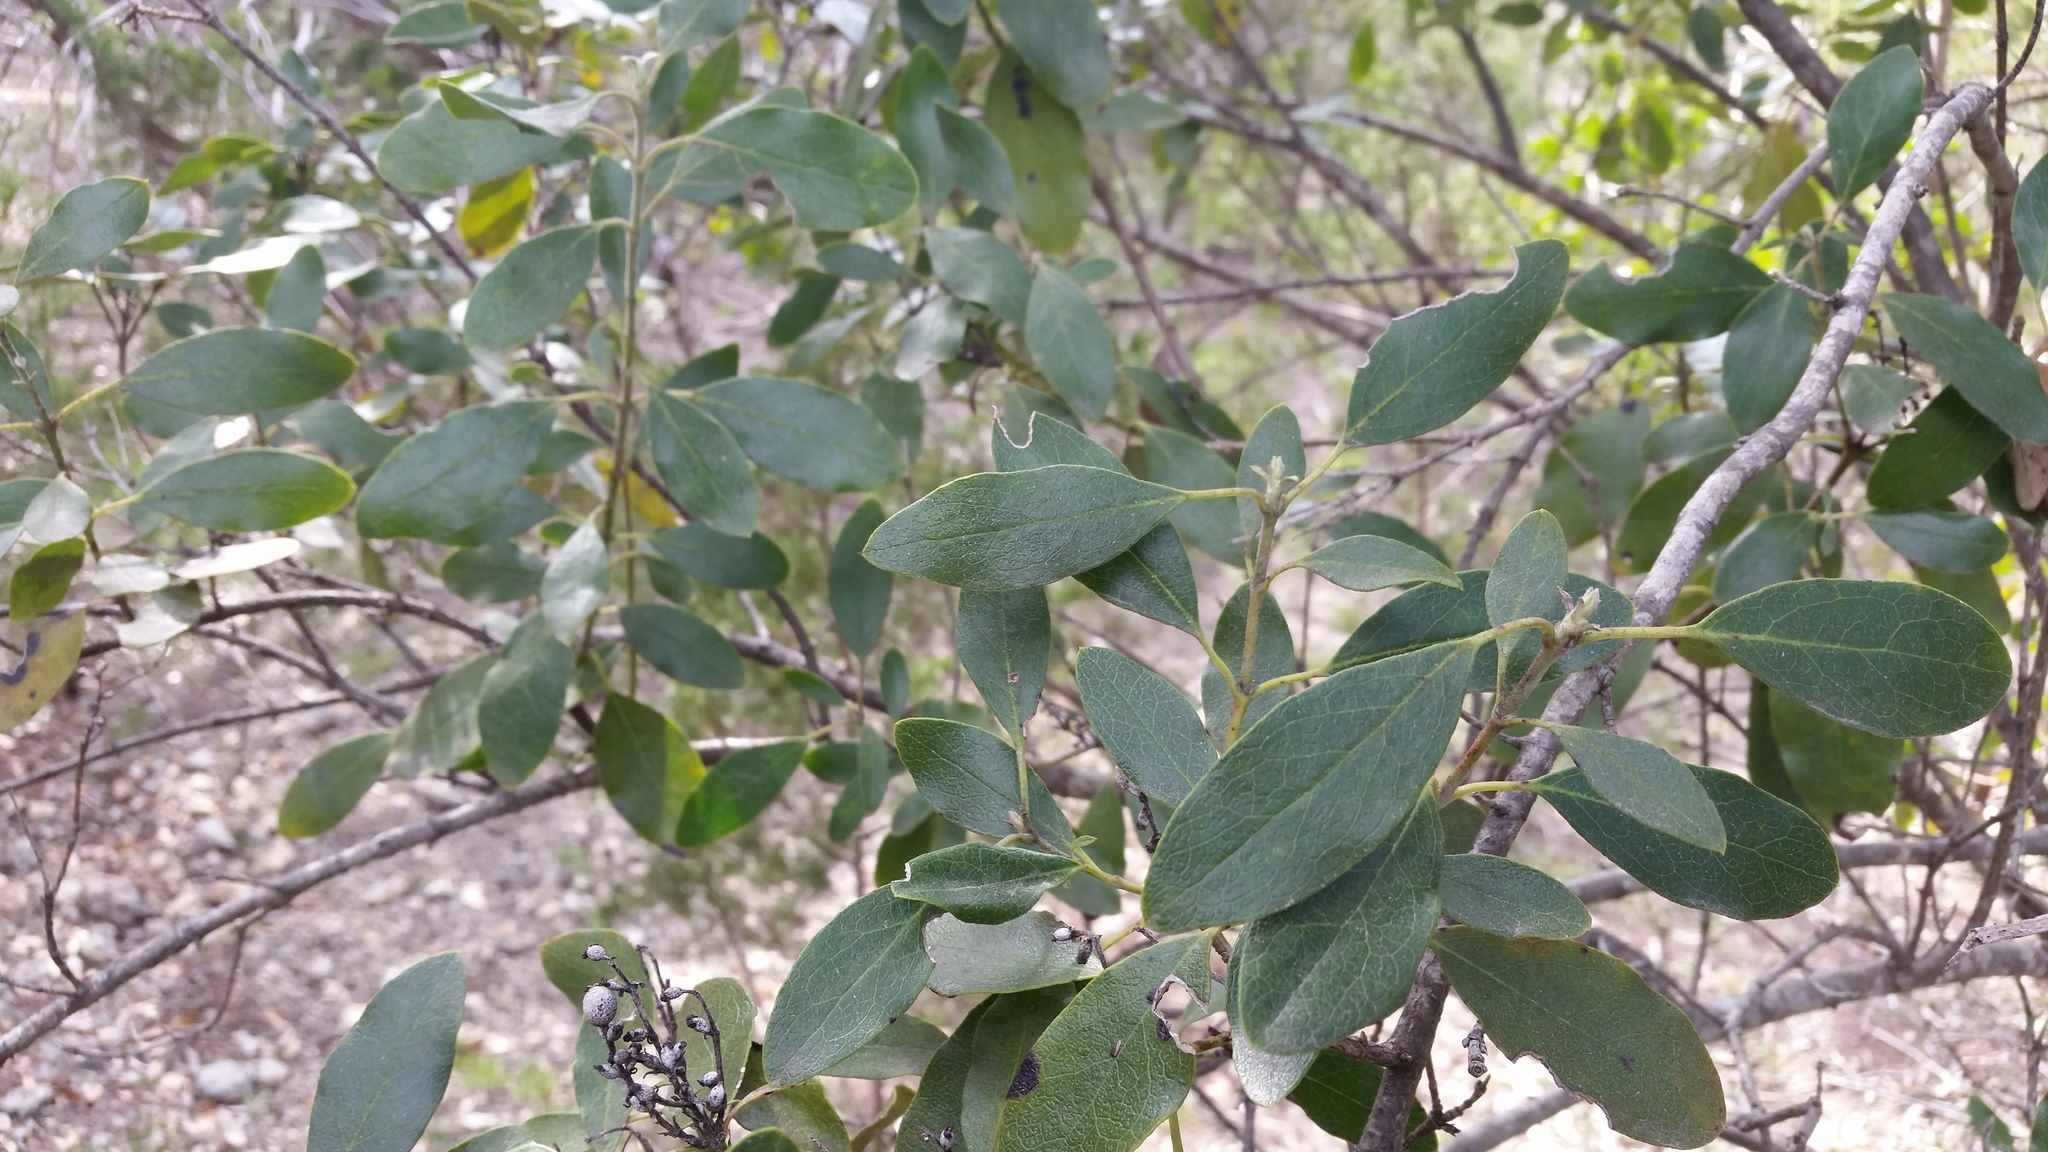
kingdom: Plantae
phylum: Tracheophyta
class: Magnoliopsida
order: Garryales
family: Garryaceae
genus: Garrya
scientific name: Garrya lindheimeri
